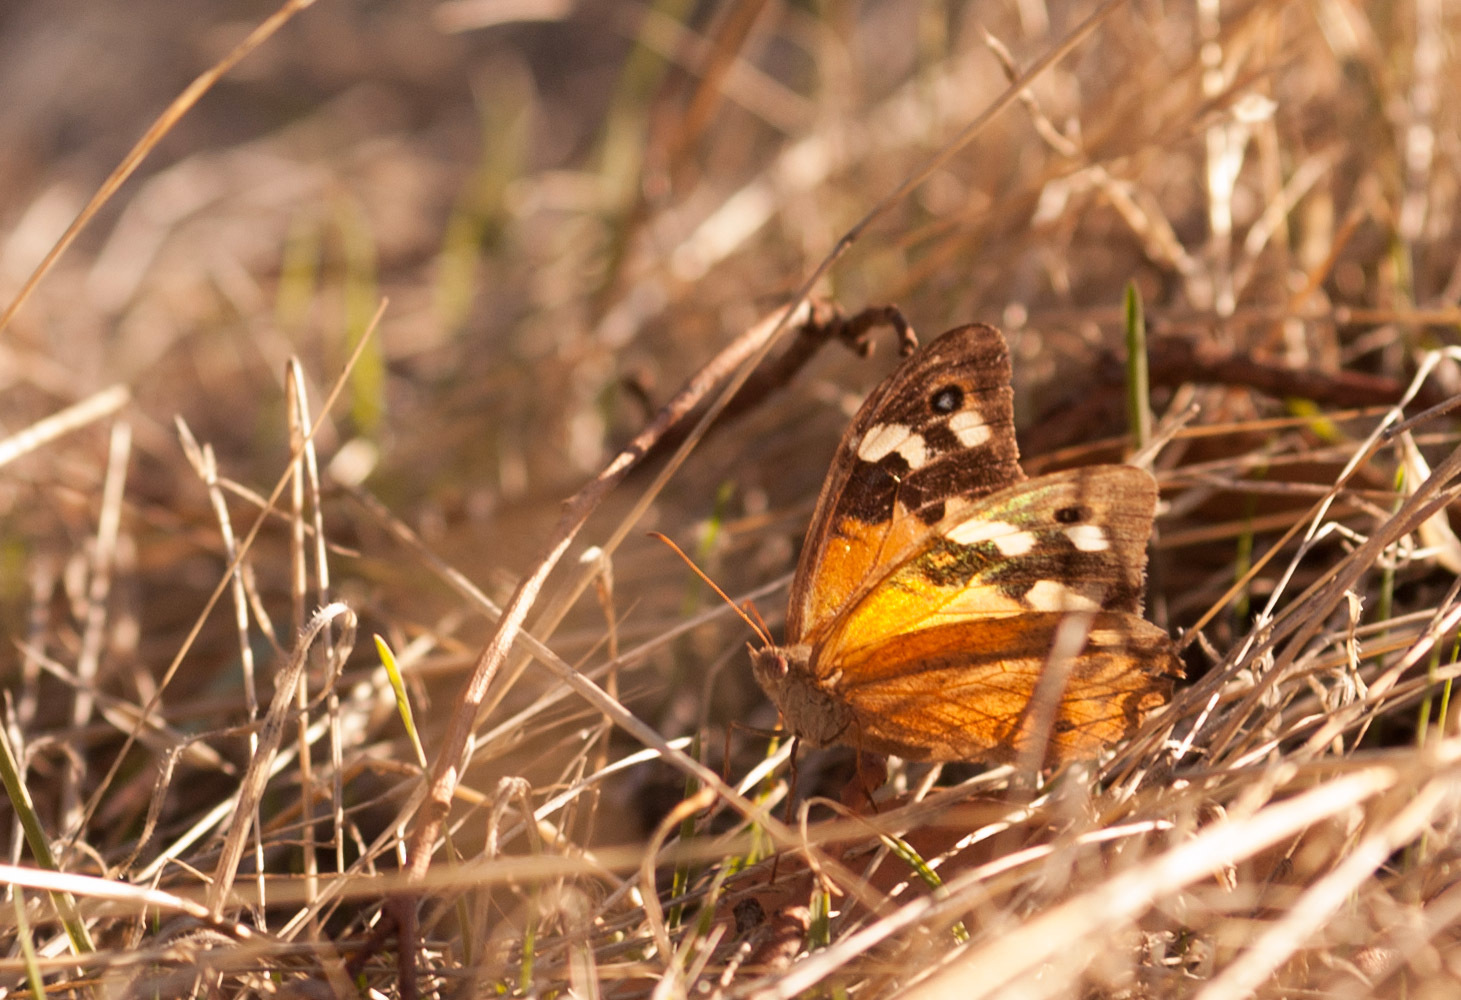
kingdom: Animalia
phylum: Arthropoda
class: Insecta
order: Lepidoptera
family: Nymphalidae
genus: Heteronympha
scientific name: Heteronympha merope
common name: Common brown
